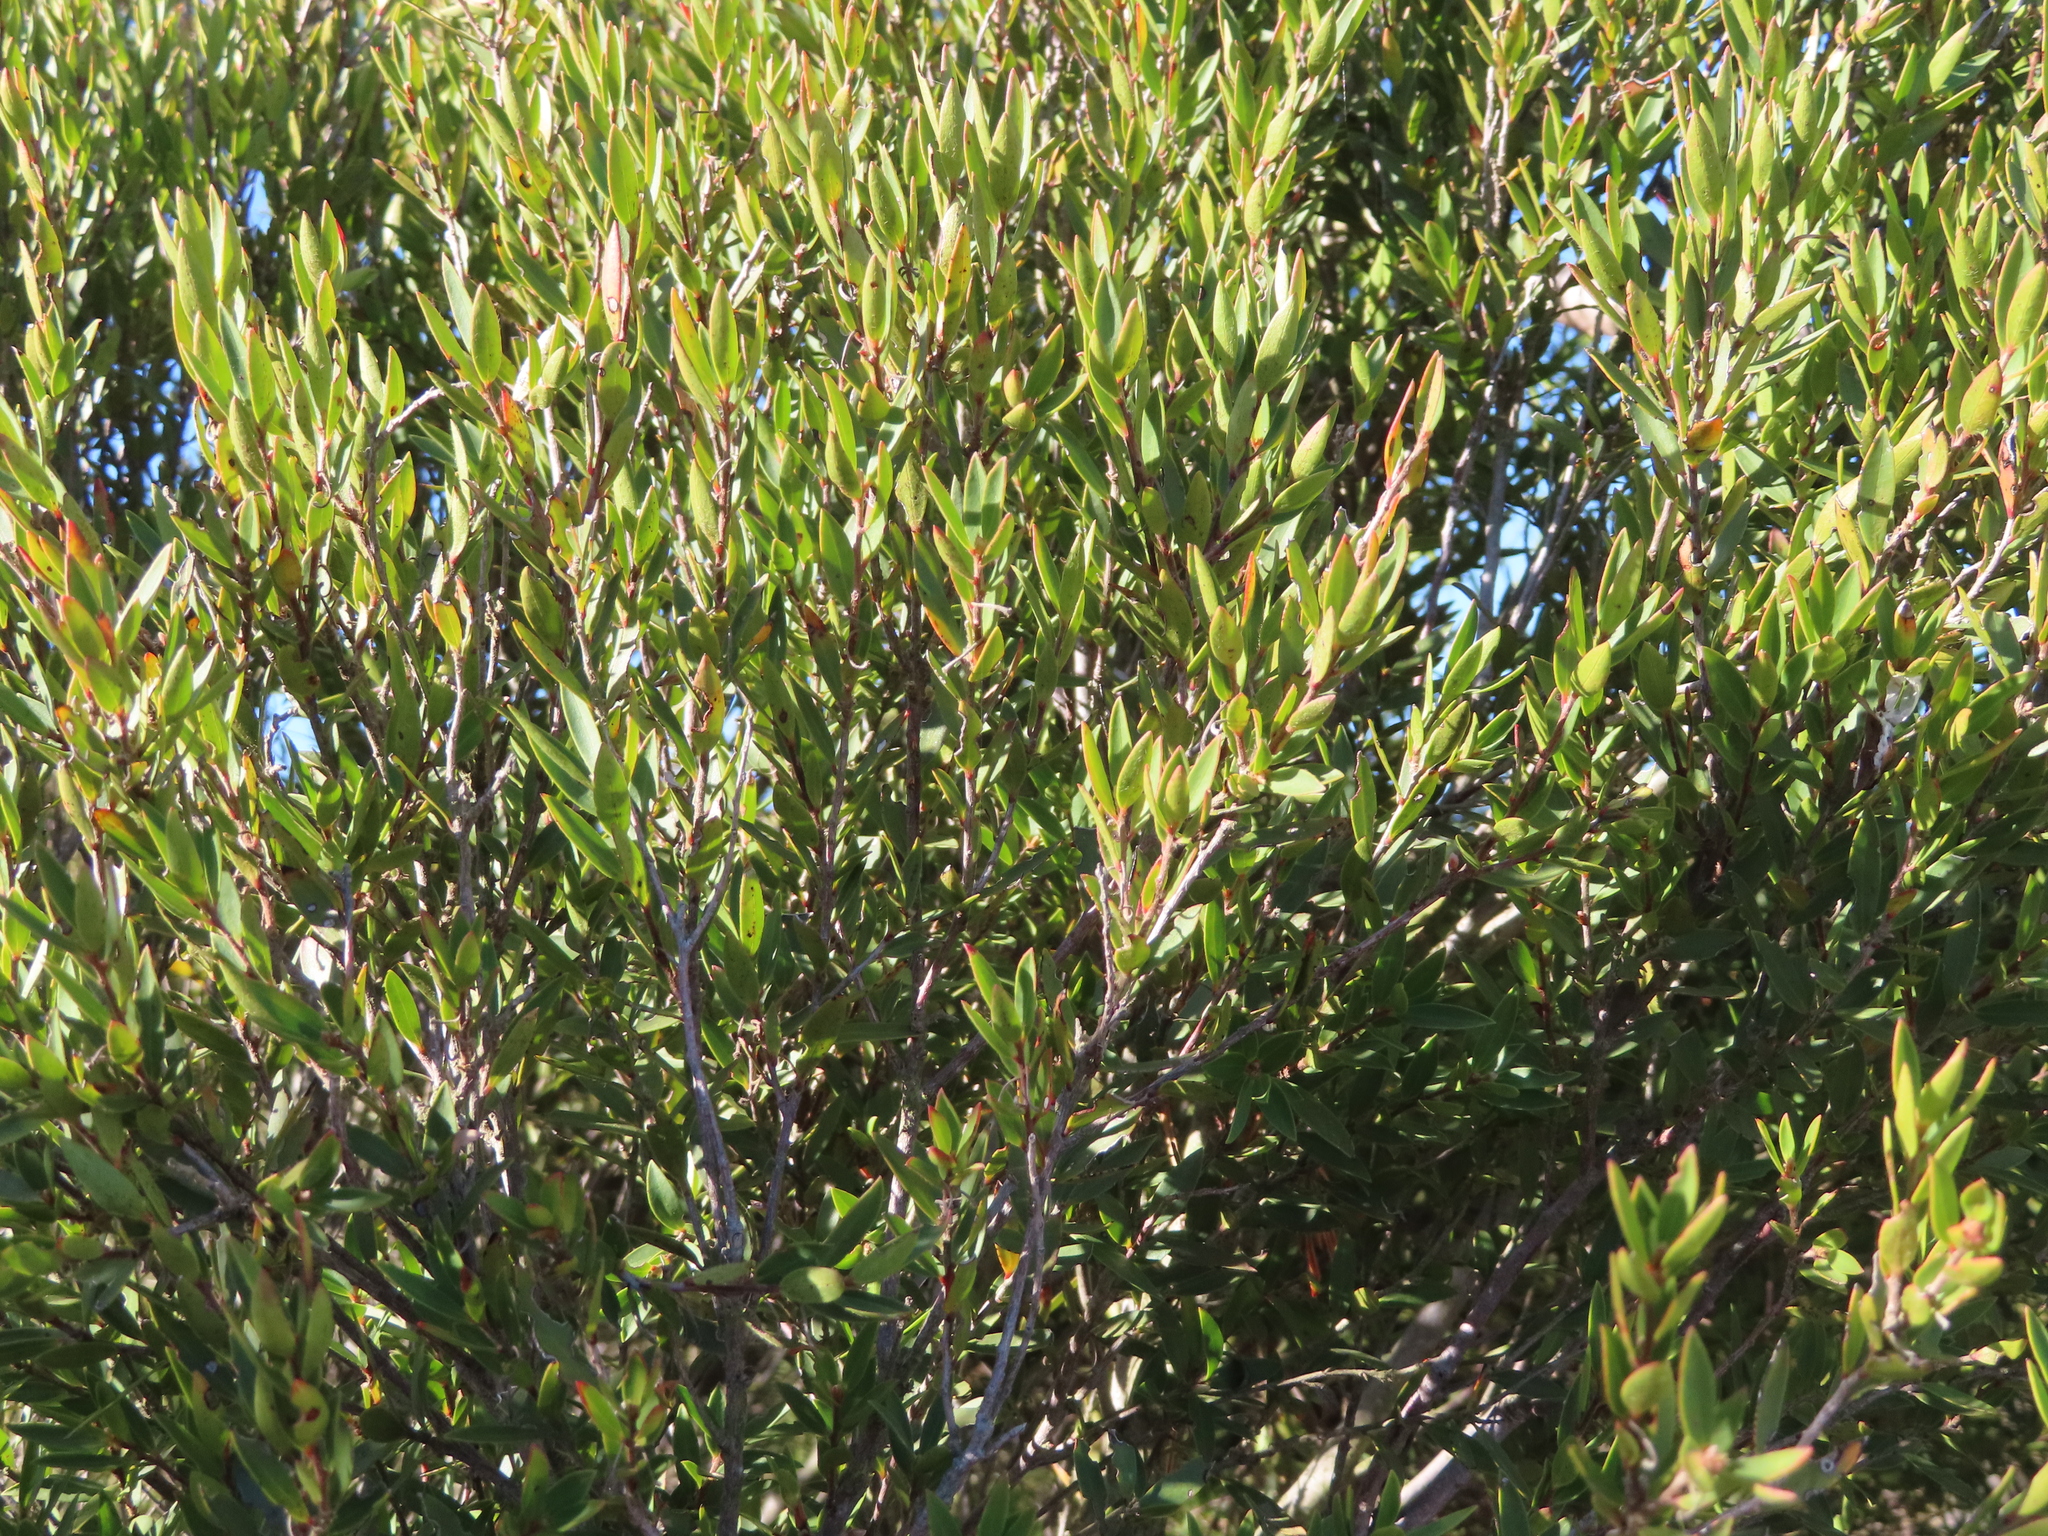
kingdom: Plantae
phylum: Tracheophyta
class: Magnoliopsida
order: Ericales
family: Ebenaceae
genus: Diospyros
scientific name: Diospyros glabra
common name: Fynbos star apple
